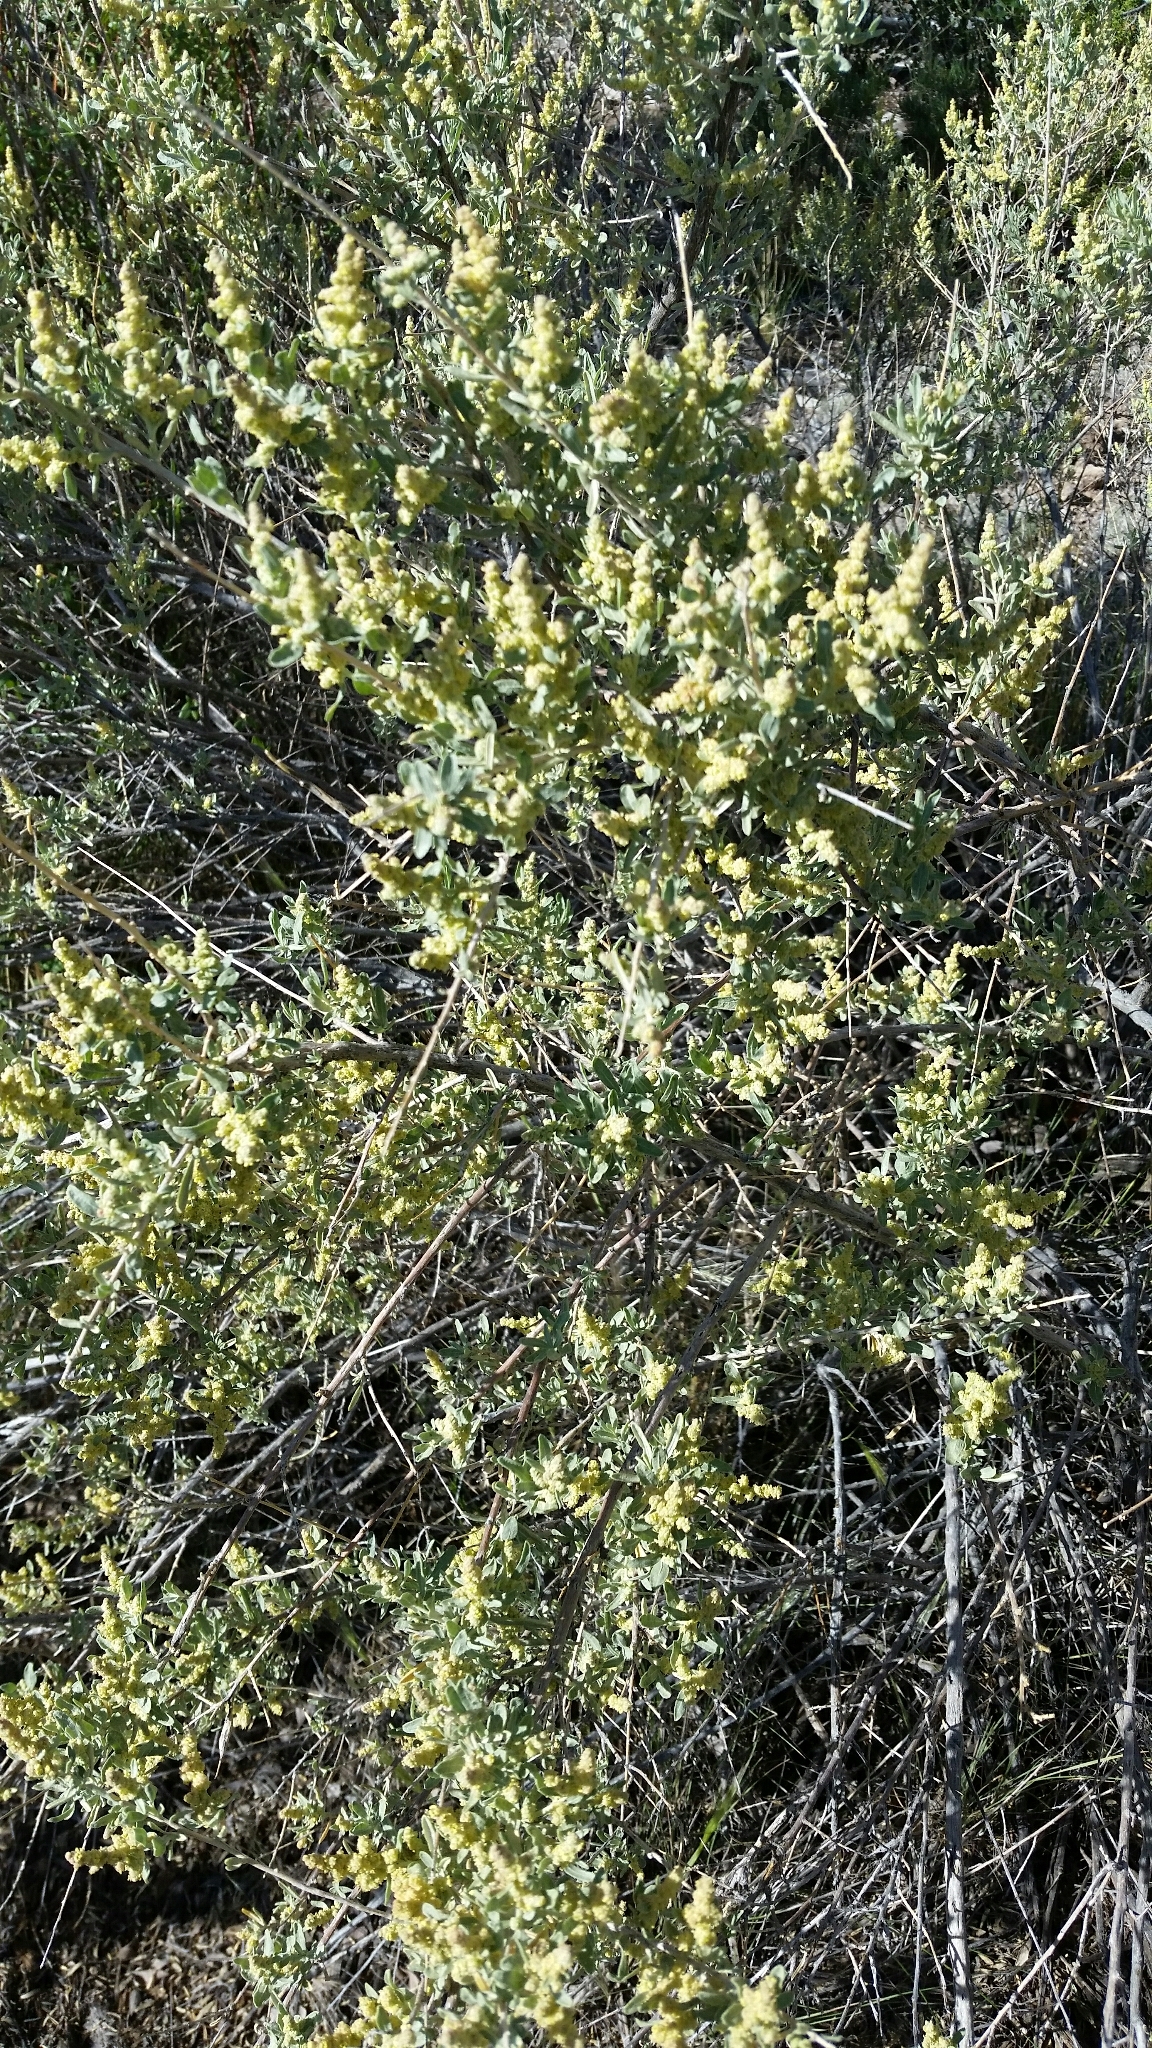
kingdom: Plantae
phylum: Tracheophyta
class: Magnoliopsida
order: Caryophyllales
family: Amaranthaceae
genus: Atriplex
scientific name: Atriplex canescens
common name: Four-wing saltbush
